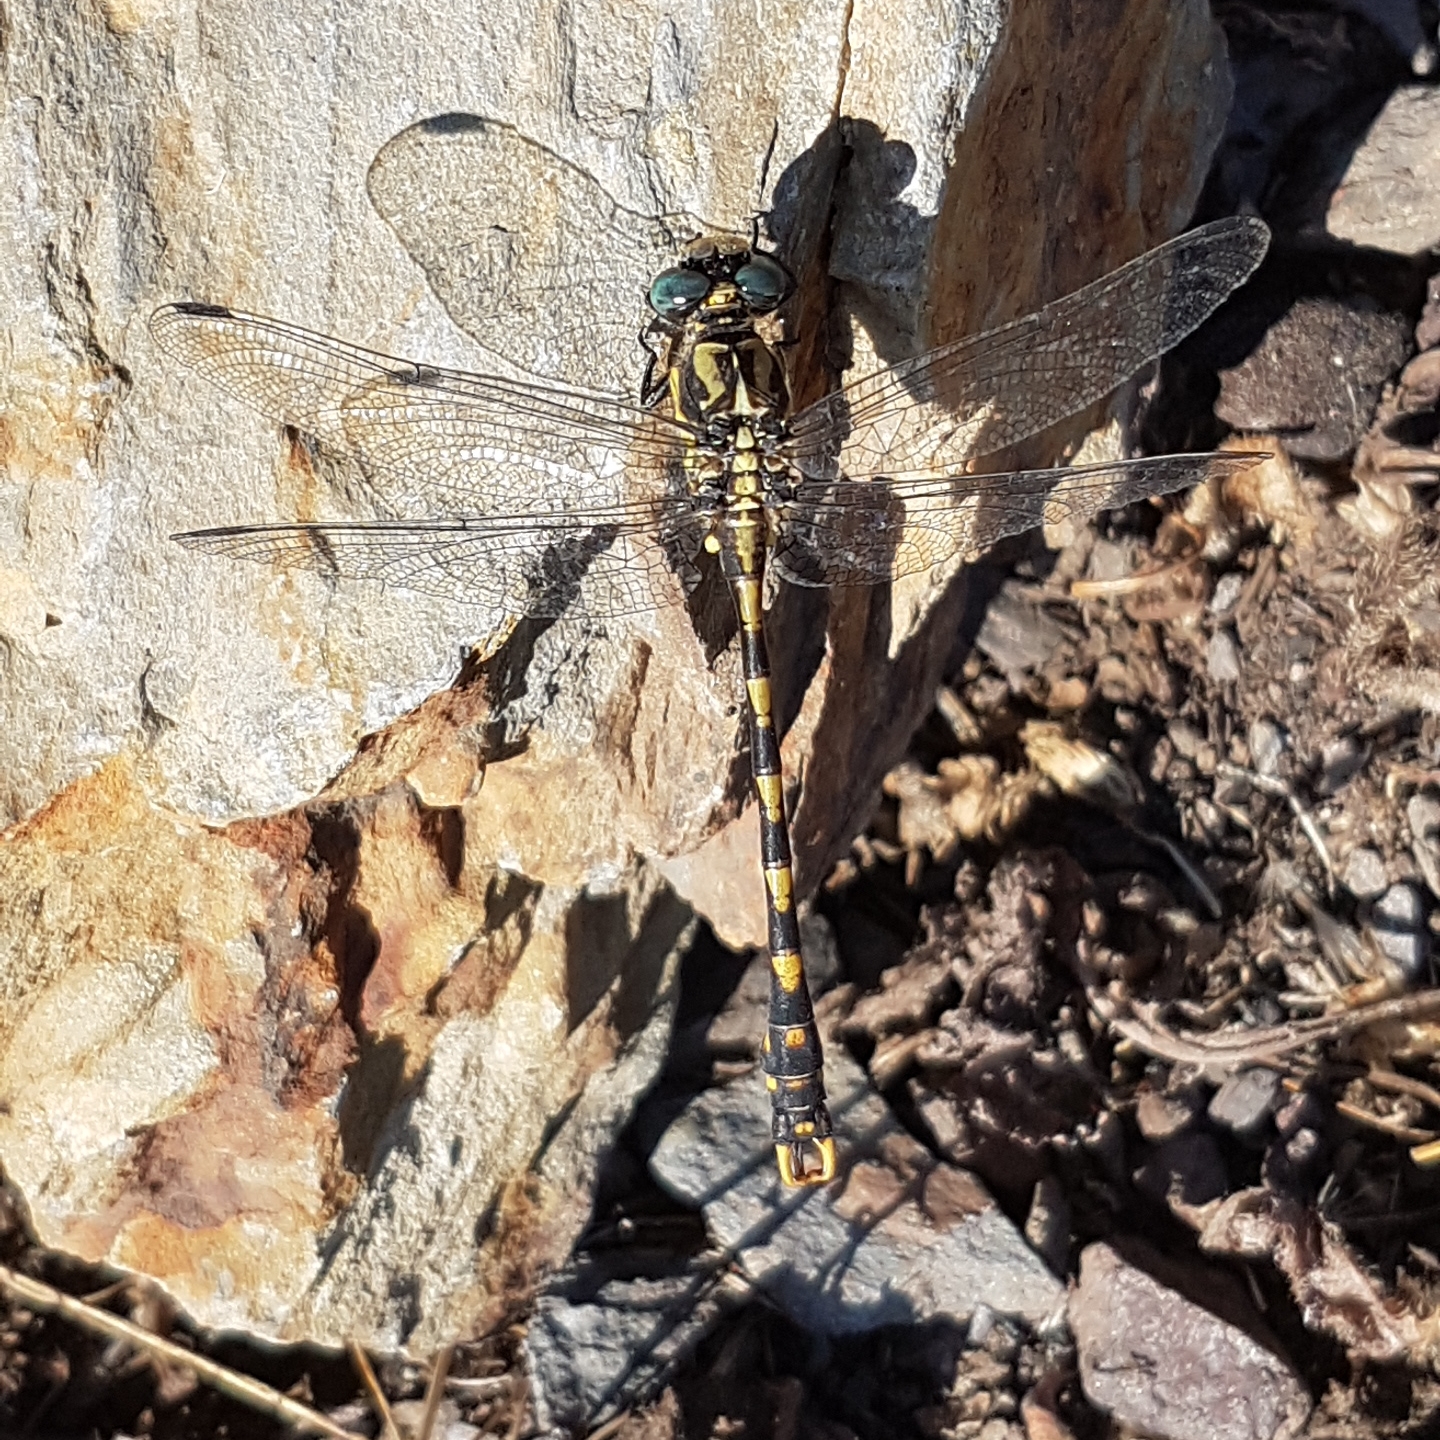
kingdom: Animalia
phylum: Arthropoda
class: Insecta
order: Odonata
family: Gomphidae
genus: Onychogomphus
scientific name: Onychogomphus uncatus
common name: Large pincertail
